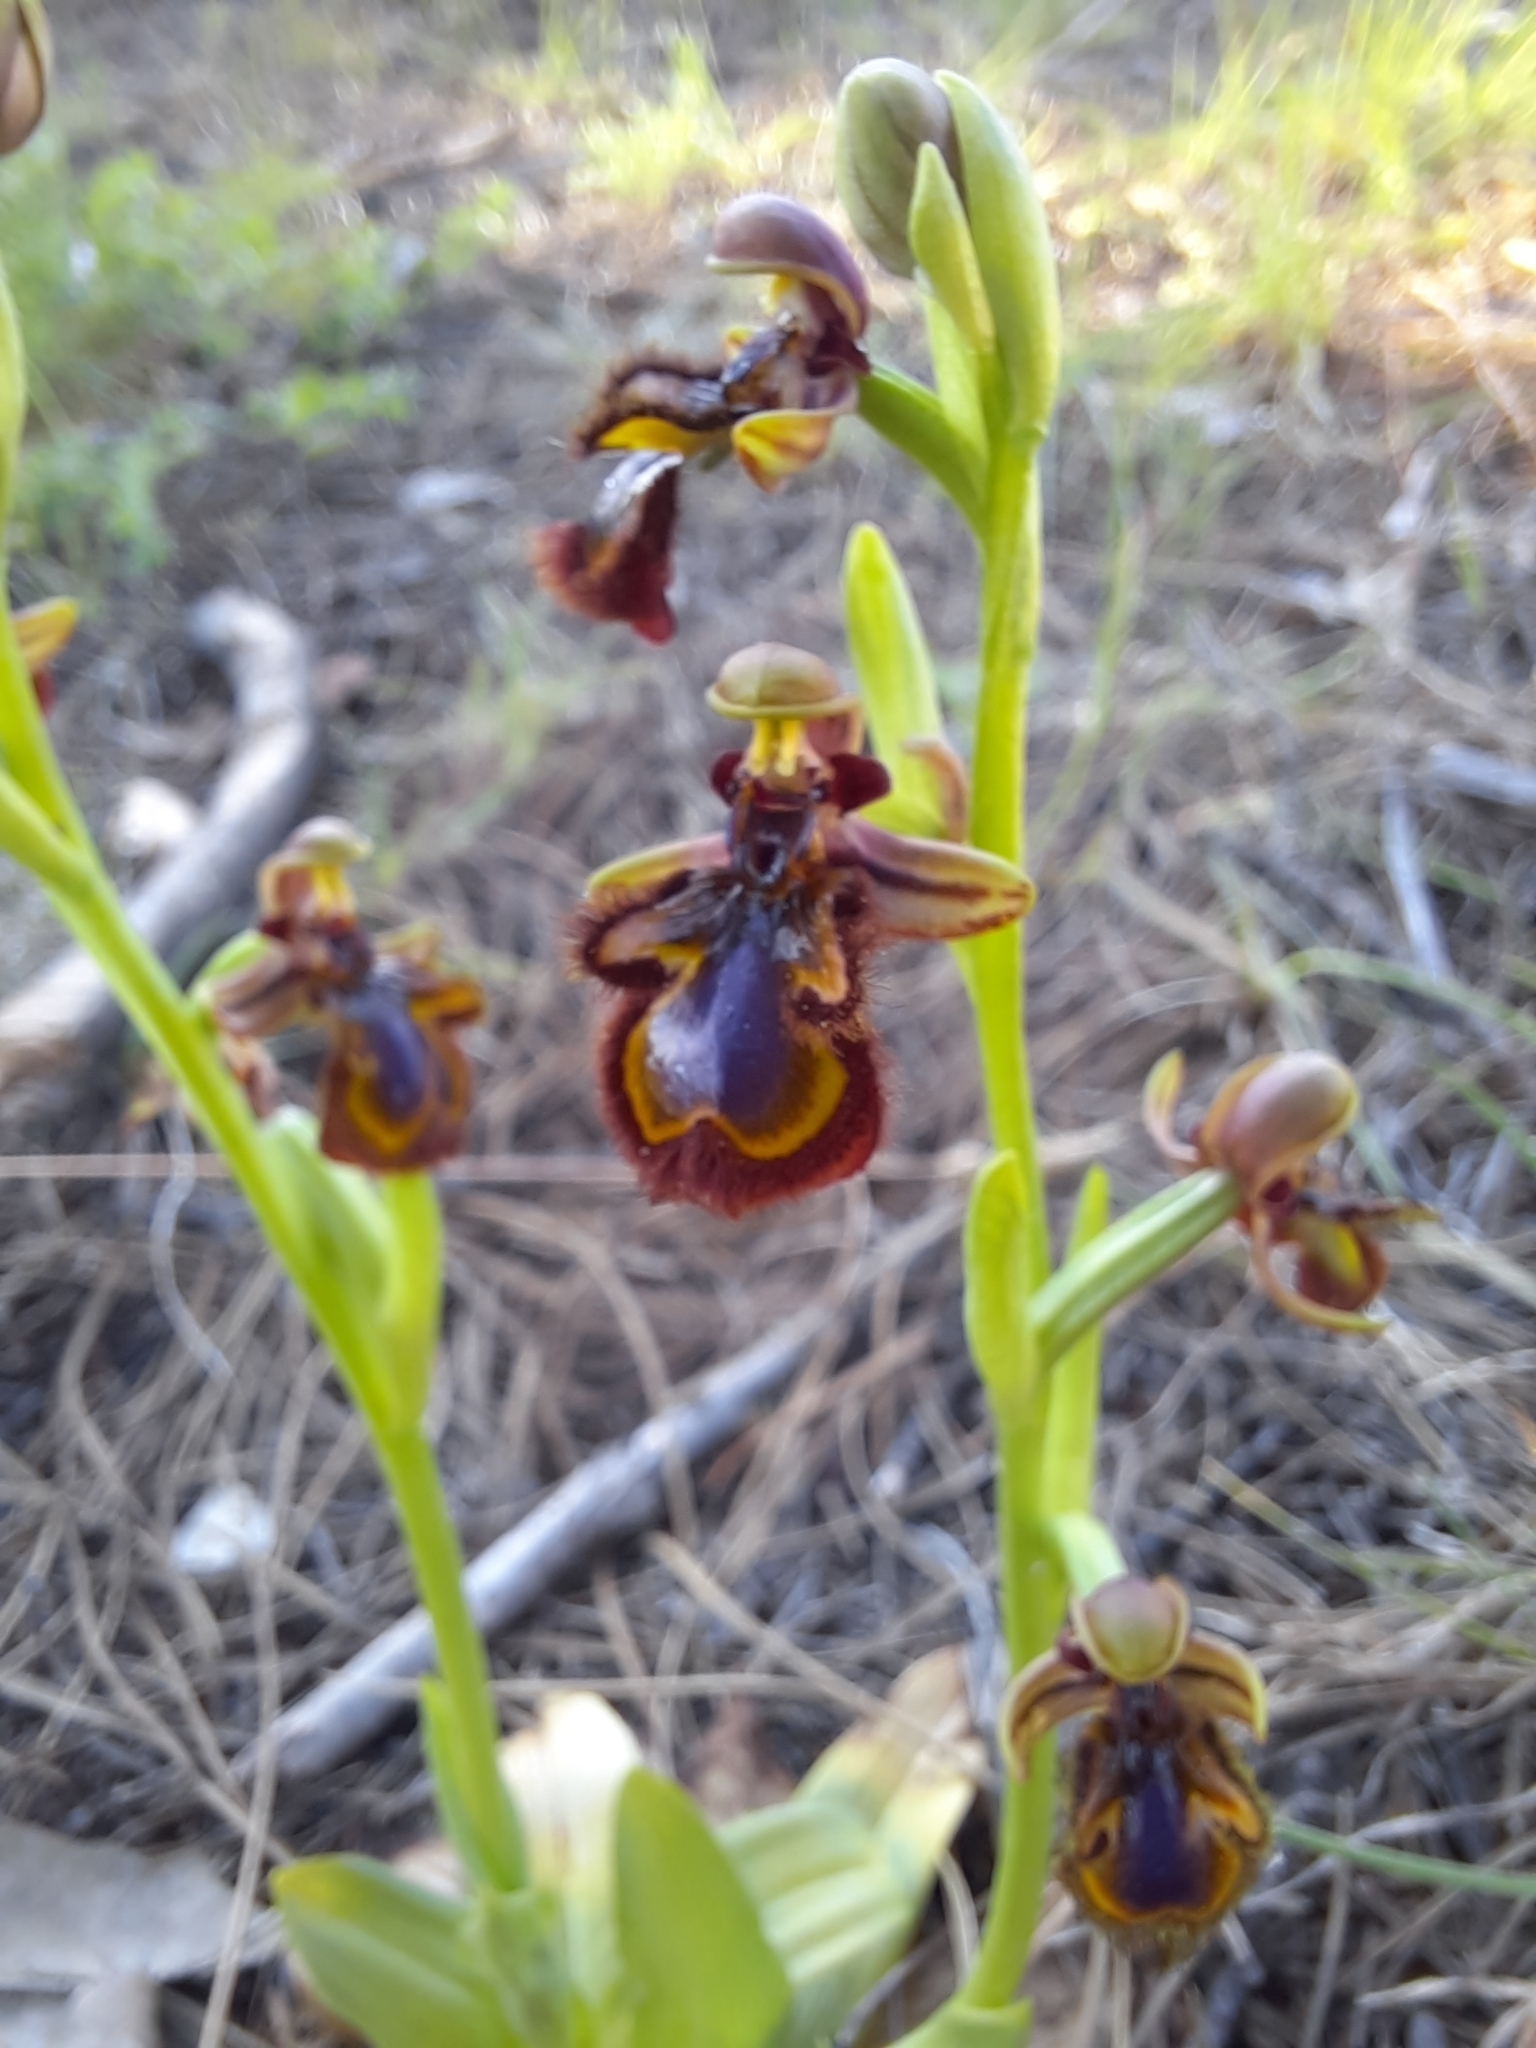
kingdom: Plantae
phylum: Tracheophyta
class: Liliopsida
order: Asparagales
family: Orchidaceae
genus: Ophrys
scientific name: Ophrys speculum
